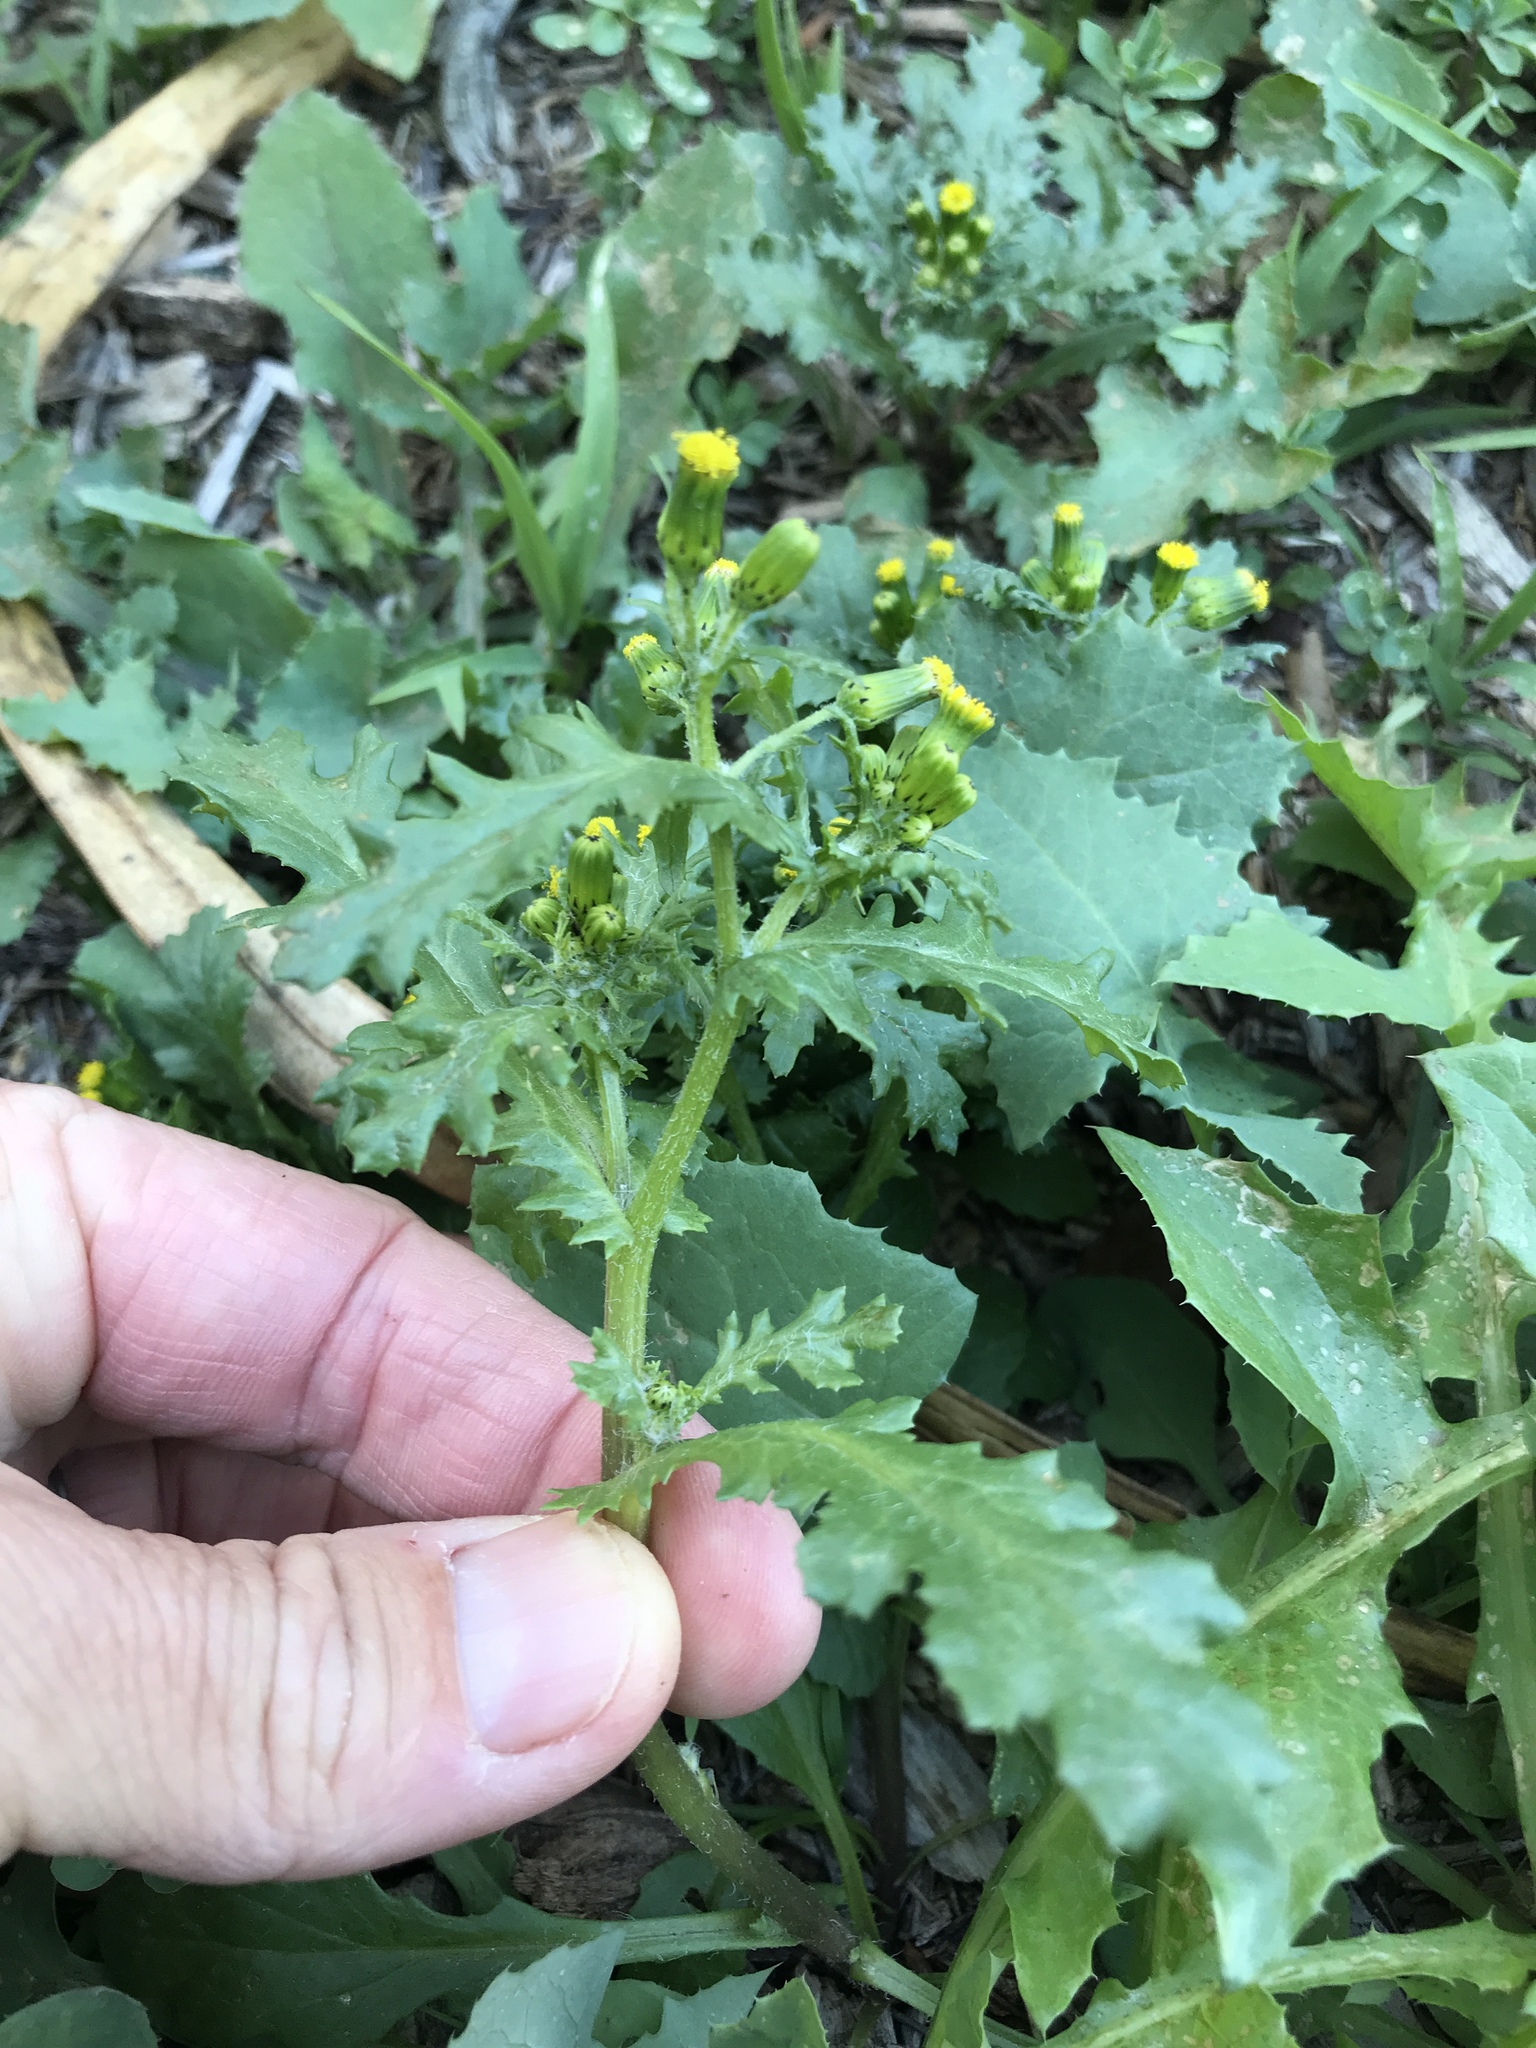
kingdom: Plantae
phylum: Tracheophyta
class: Magnoliopsida
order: Asterales
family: Asteraceae
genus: Senecio
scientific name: Senecio vulgaris
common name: Old-man-in-the-spring
